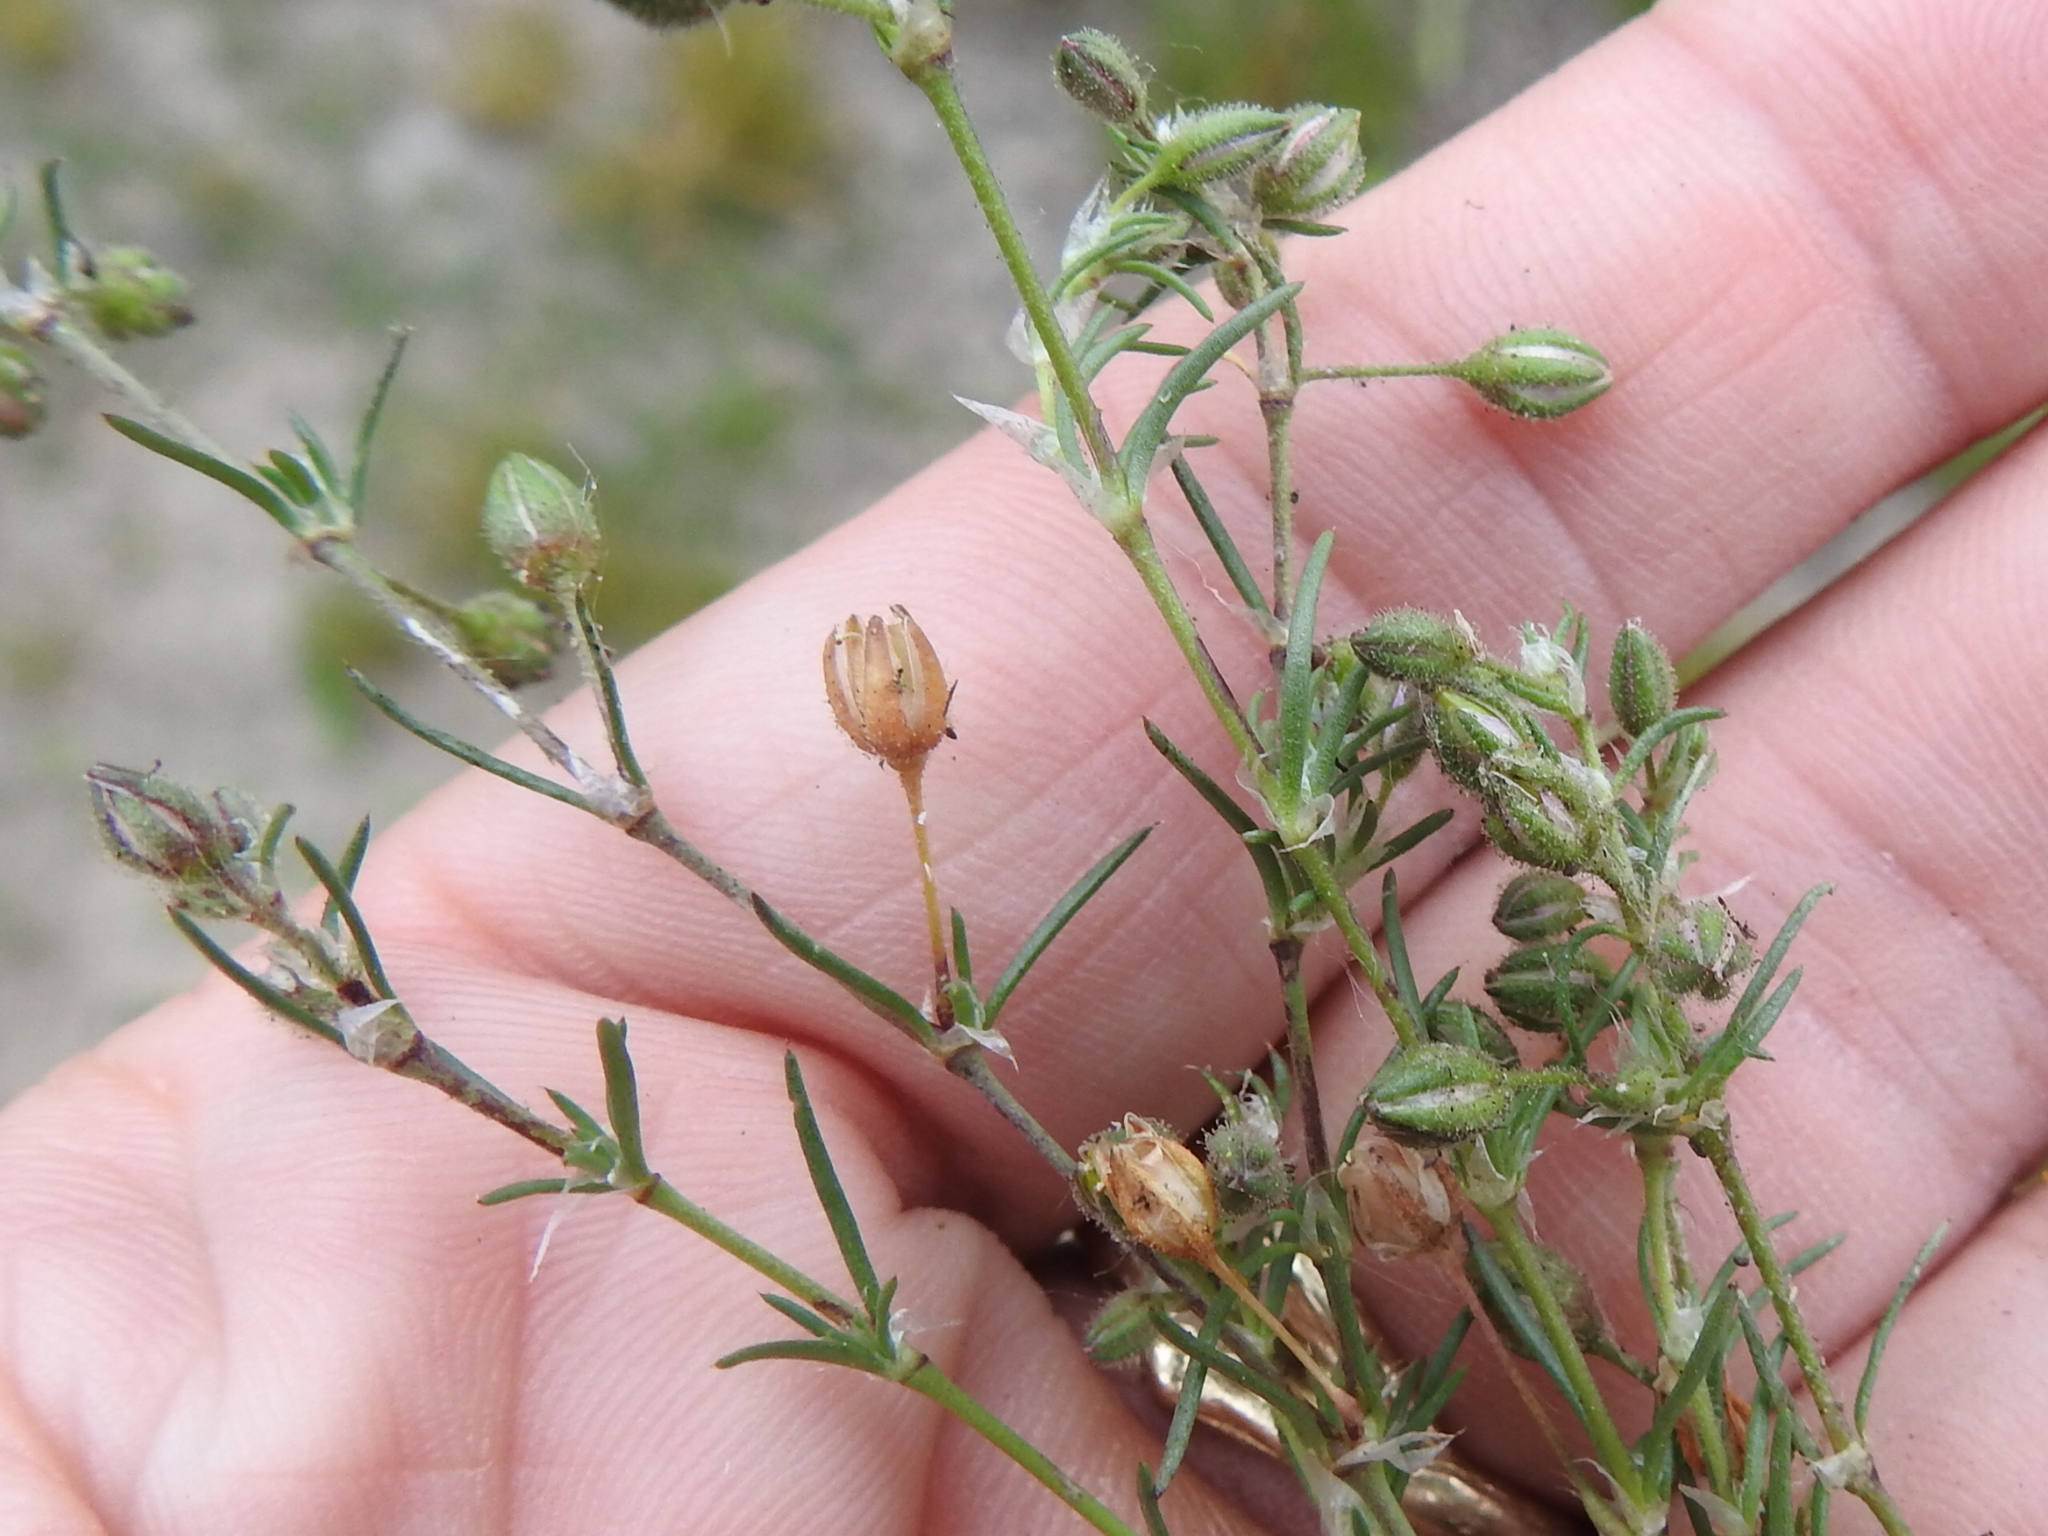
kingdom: Plantae
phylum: Tracheophyta
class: Magnoliopsida
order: Caryophyllales
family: Caryophyllaceae
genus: Spergularia
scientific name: Spergularia rubra
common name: Red sand-spurrey
